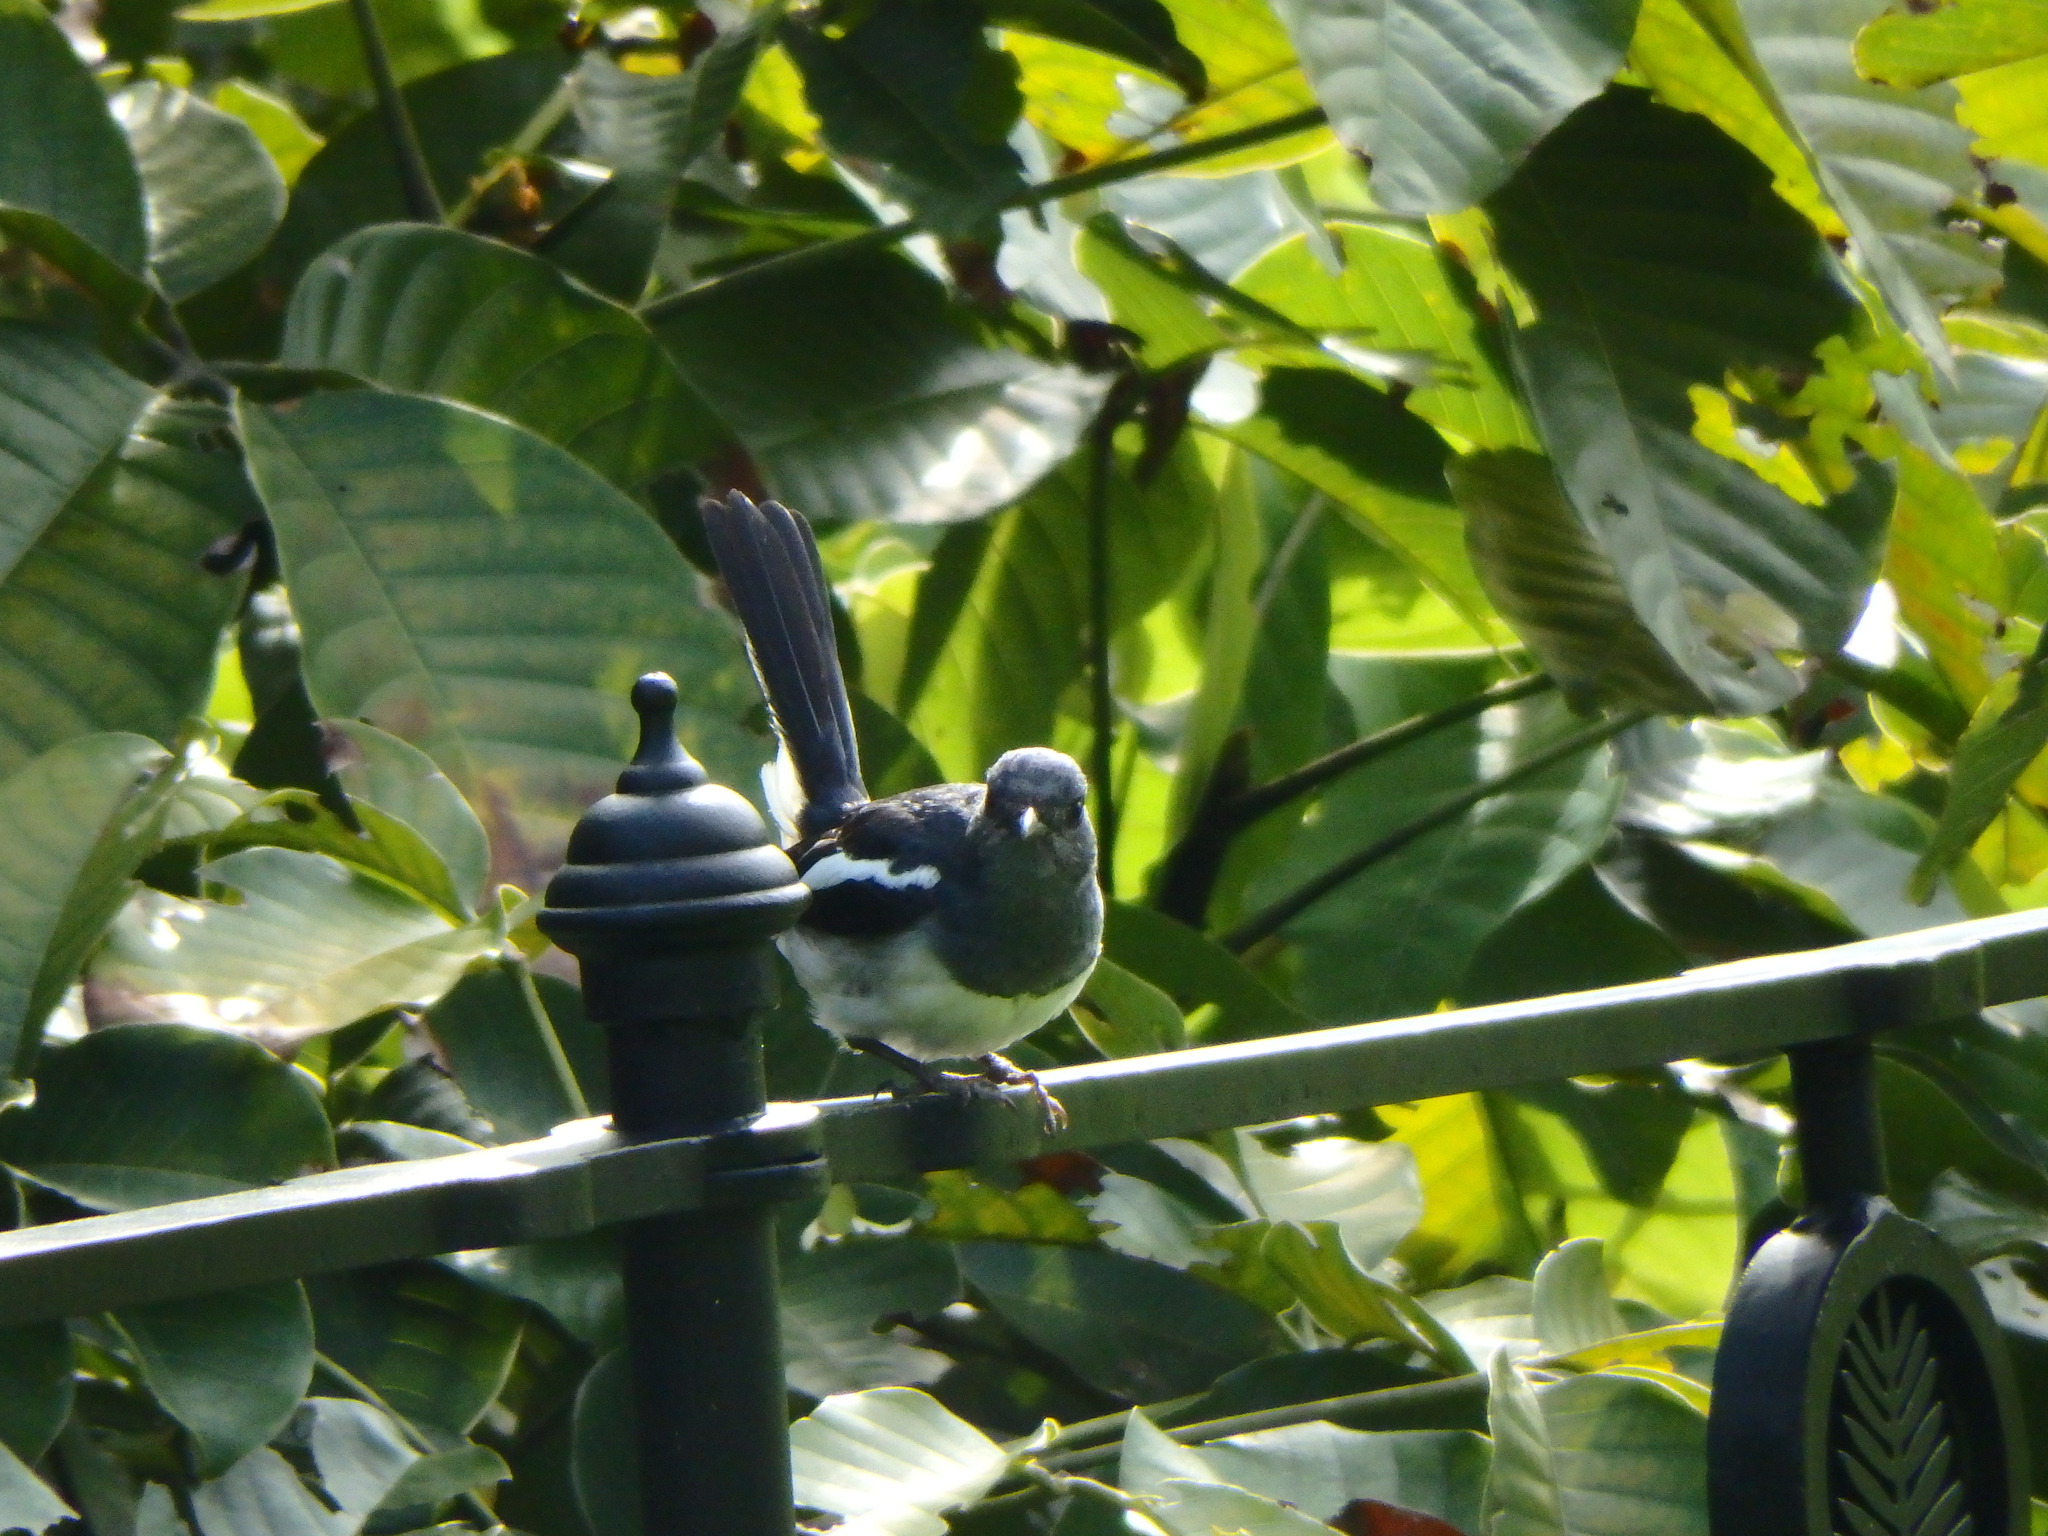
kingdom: Animalia
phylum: Chordata
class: Aves
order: Passeriformes
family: Muscicapidae
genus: Copsychus
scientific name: Copsychus saularis
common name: Oriental magpie-robin
